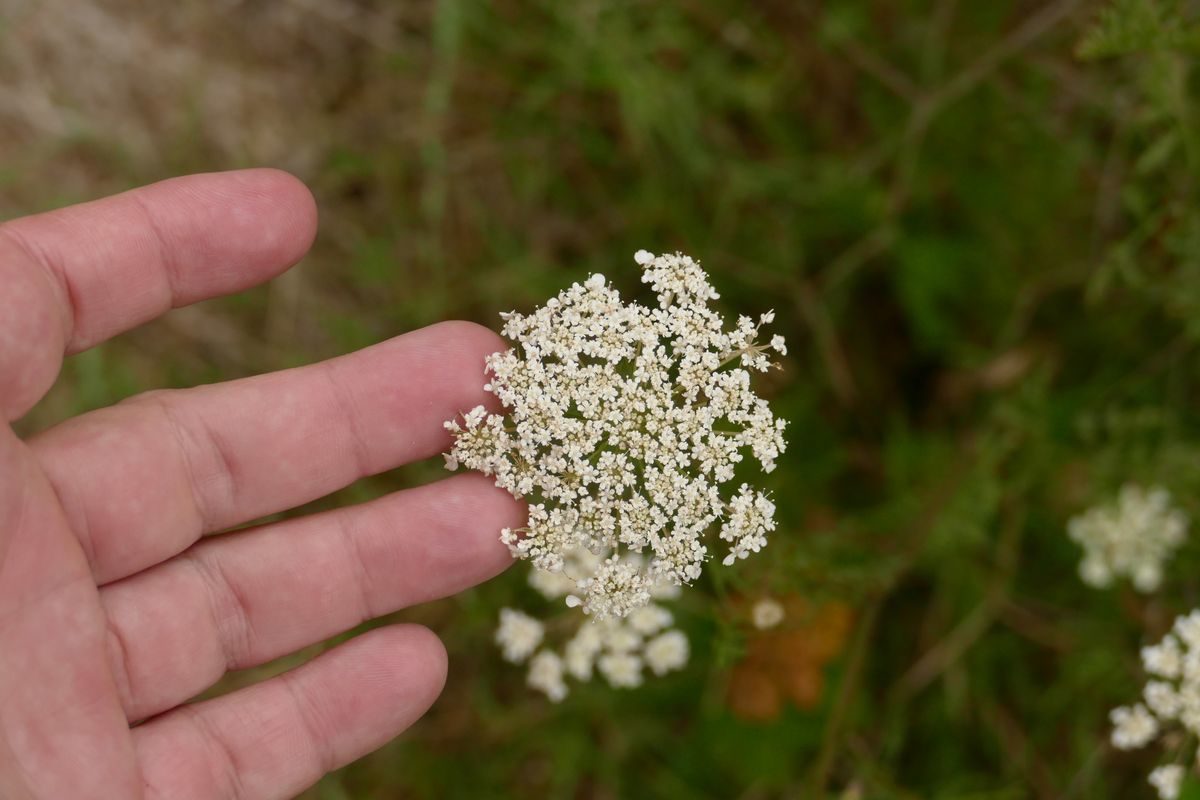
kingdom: Plantae
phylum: Tracheophyta
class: Magnoliopsida
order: Apiales
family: Apiaceae
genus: Daucus
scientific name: Daucus carota
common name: Wild carrot
